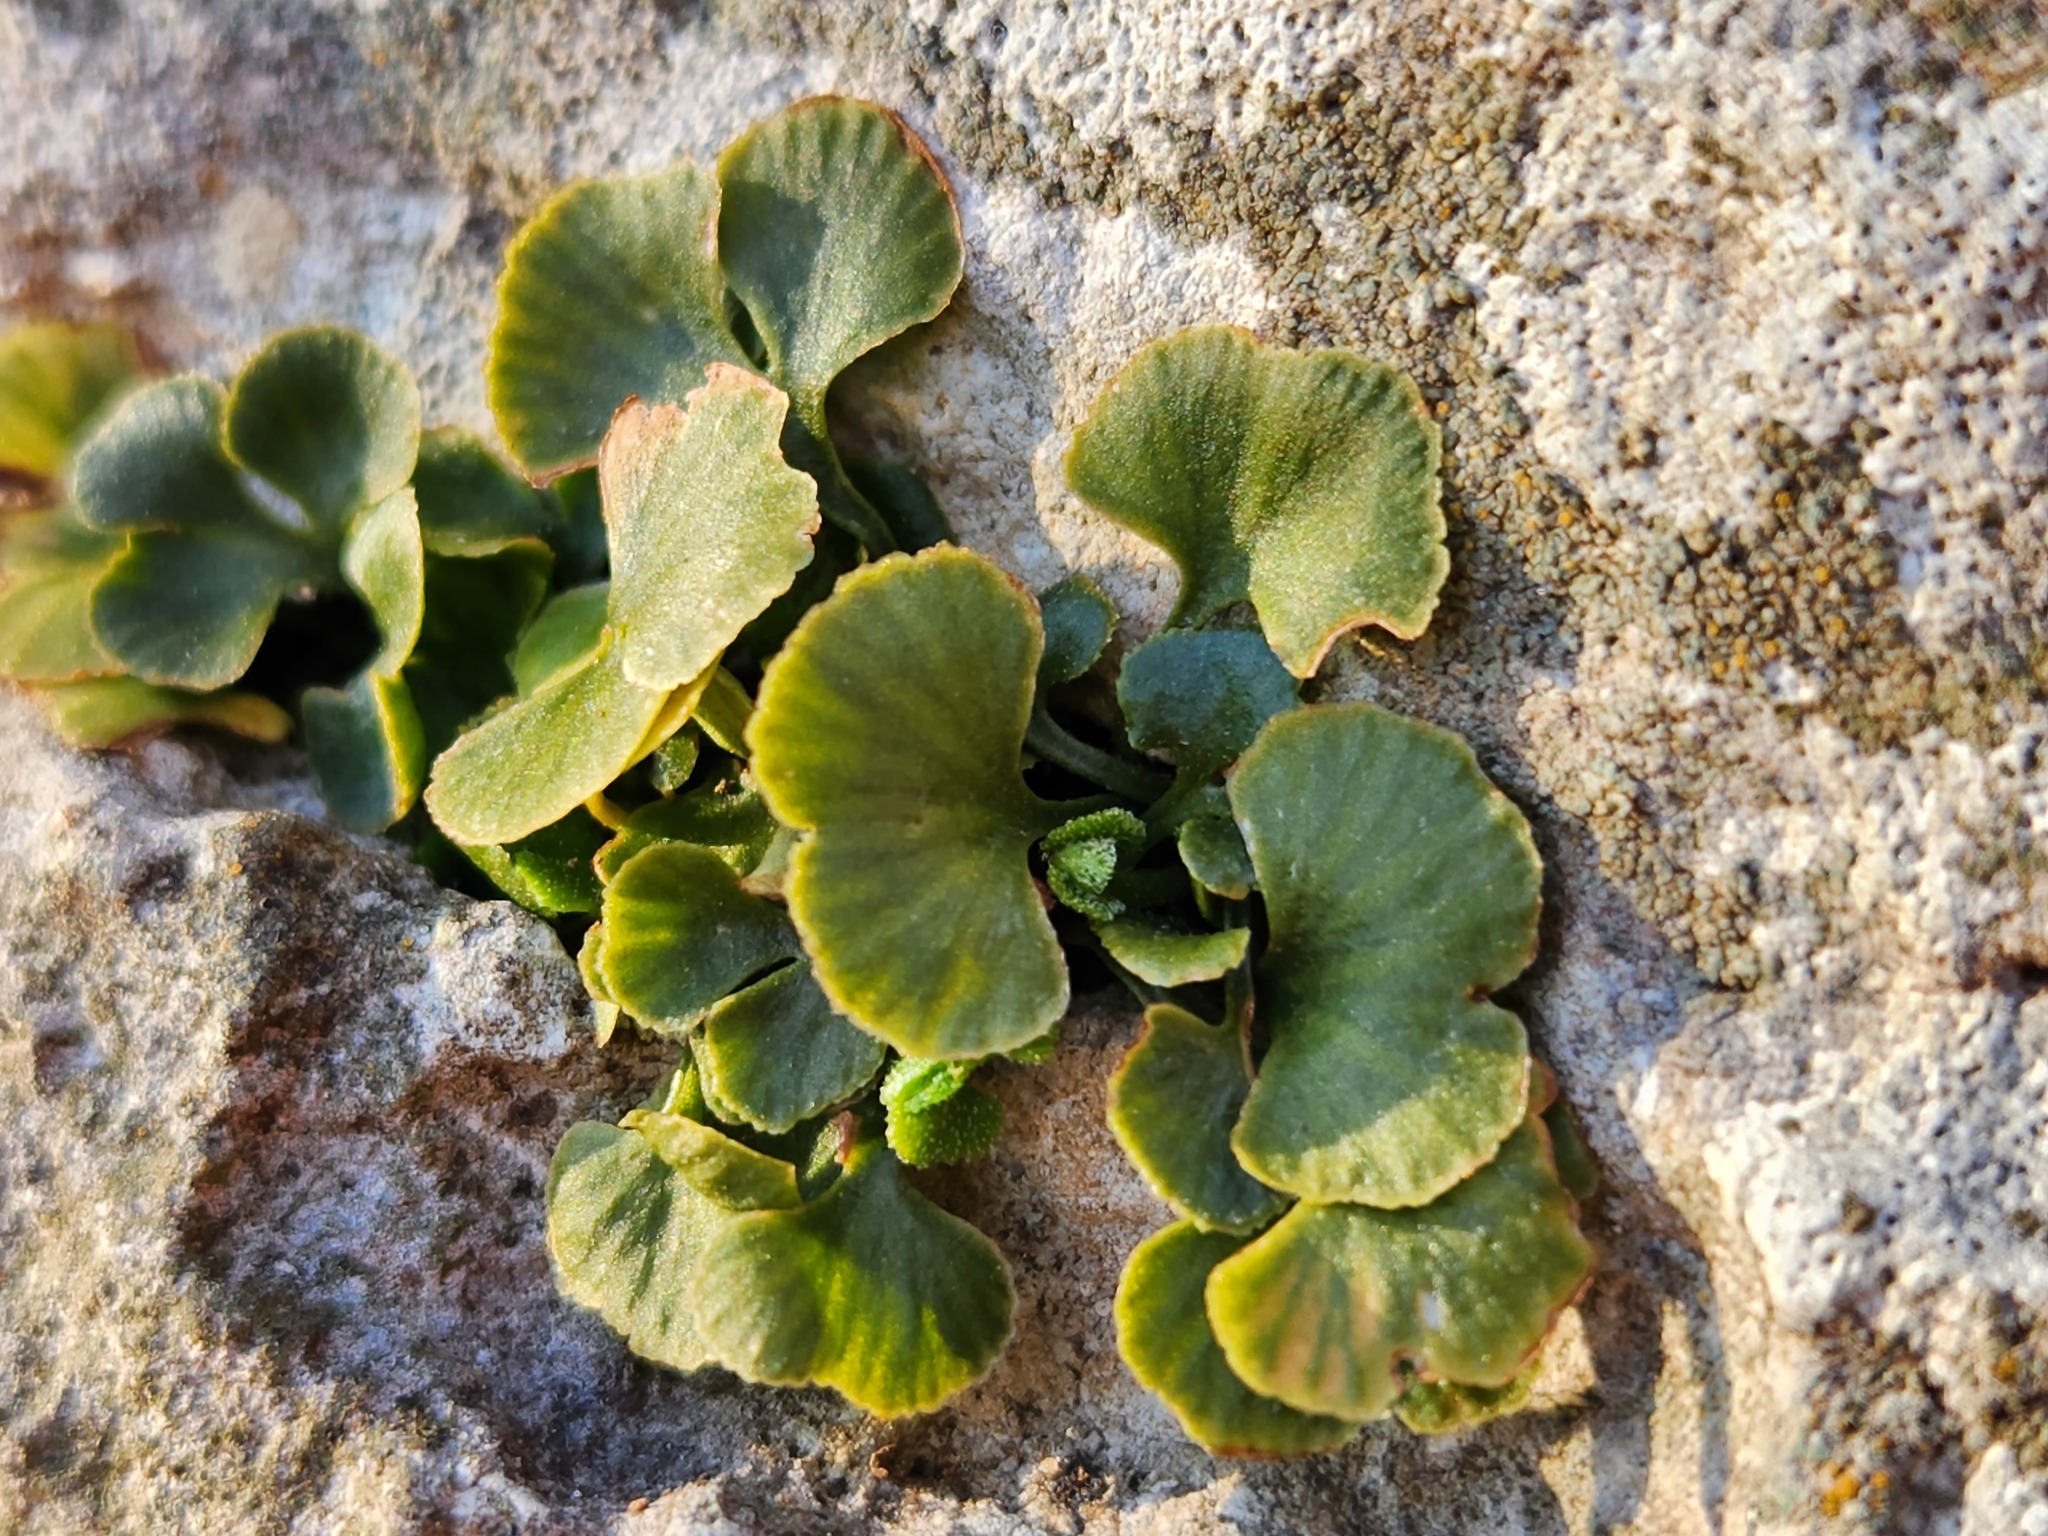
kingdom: Plantae
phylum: Tracheophyta
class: Polypodiopsida
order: Polypodiales
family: Aspleniaceae
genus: Asplenium
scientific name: Asplenium ruta-muraria
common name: Wall-rue
